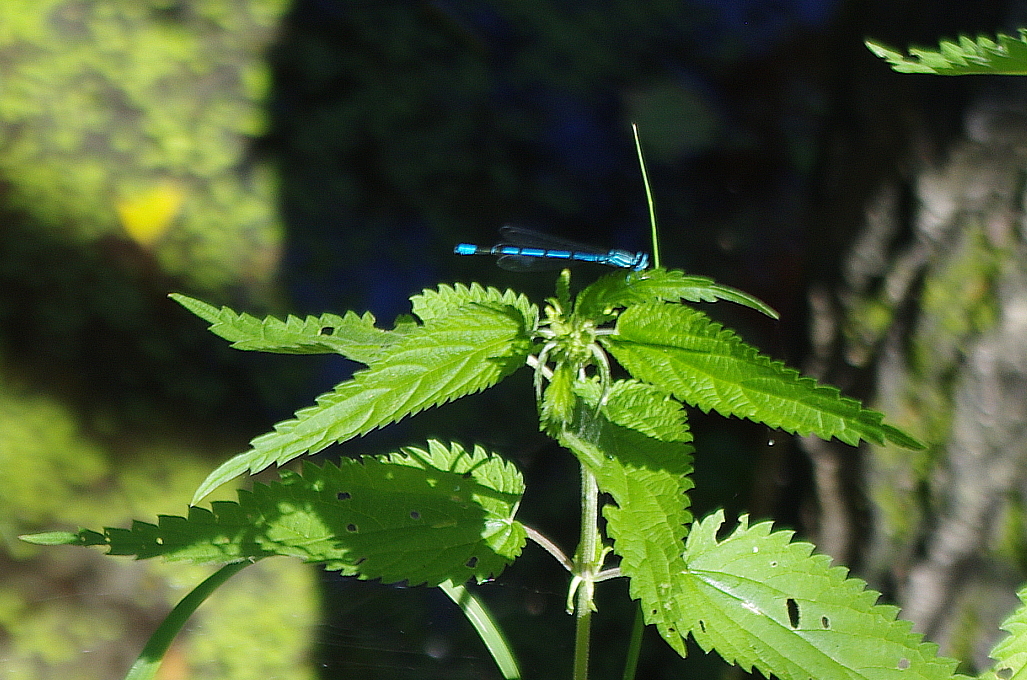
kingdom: Animalia
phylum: Arthropoda
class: Insecta
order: Odonata
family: Coenagrionidae
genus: Coenagrion
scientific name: Coenagrion puella
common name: Azure damselfly
